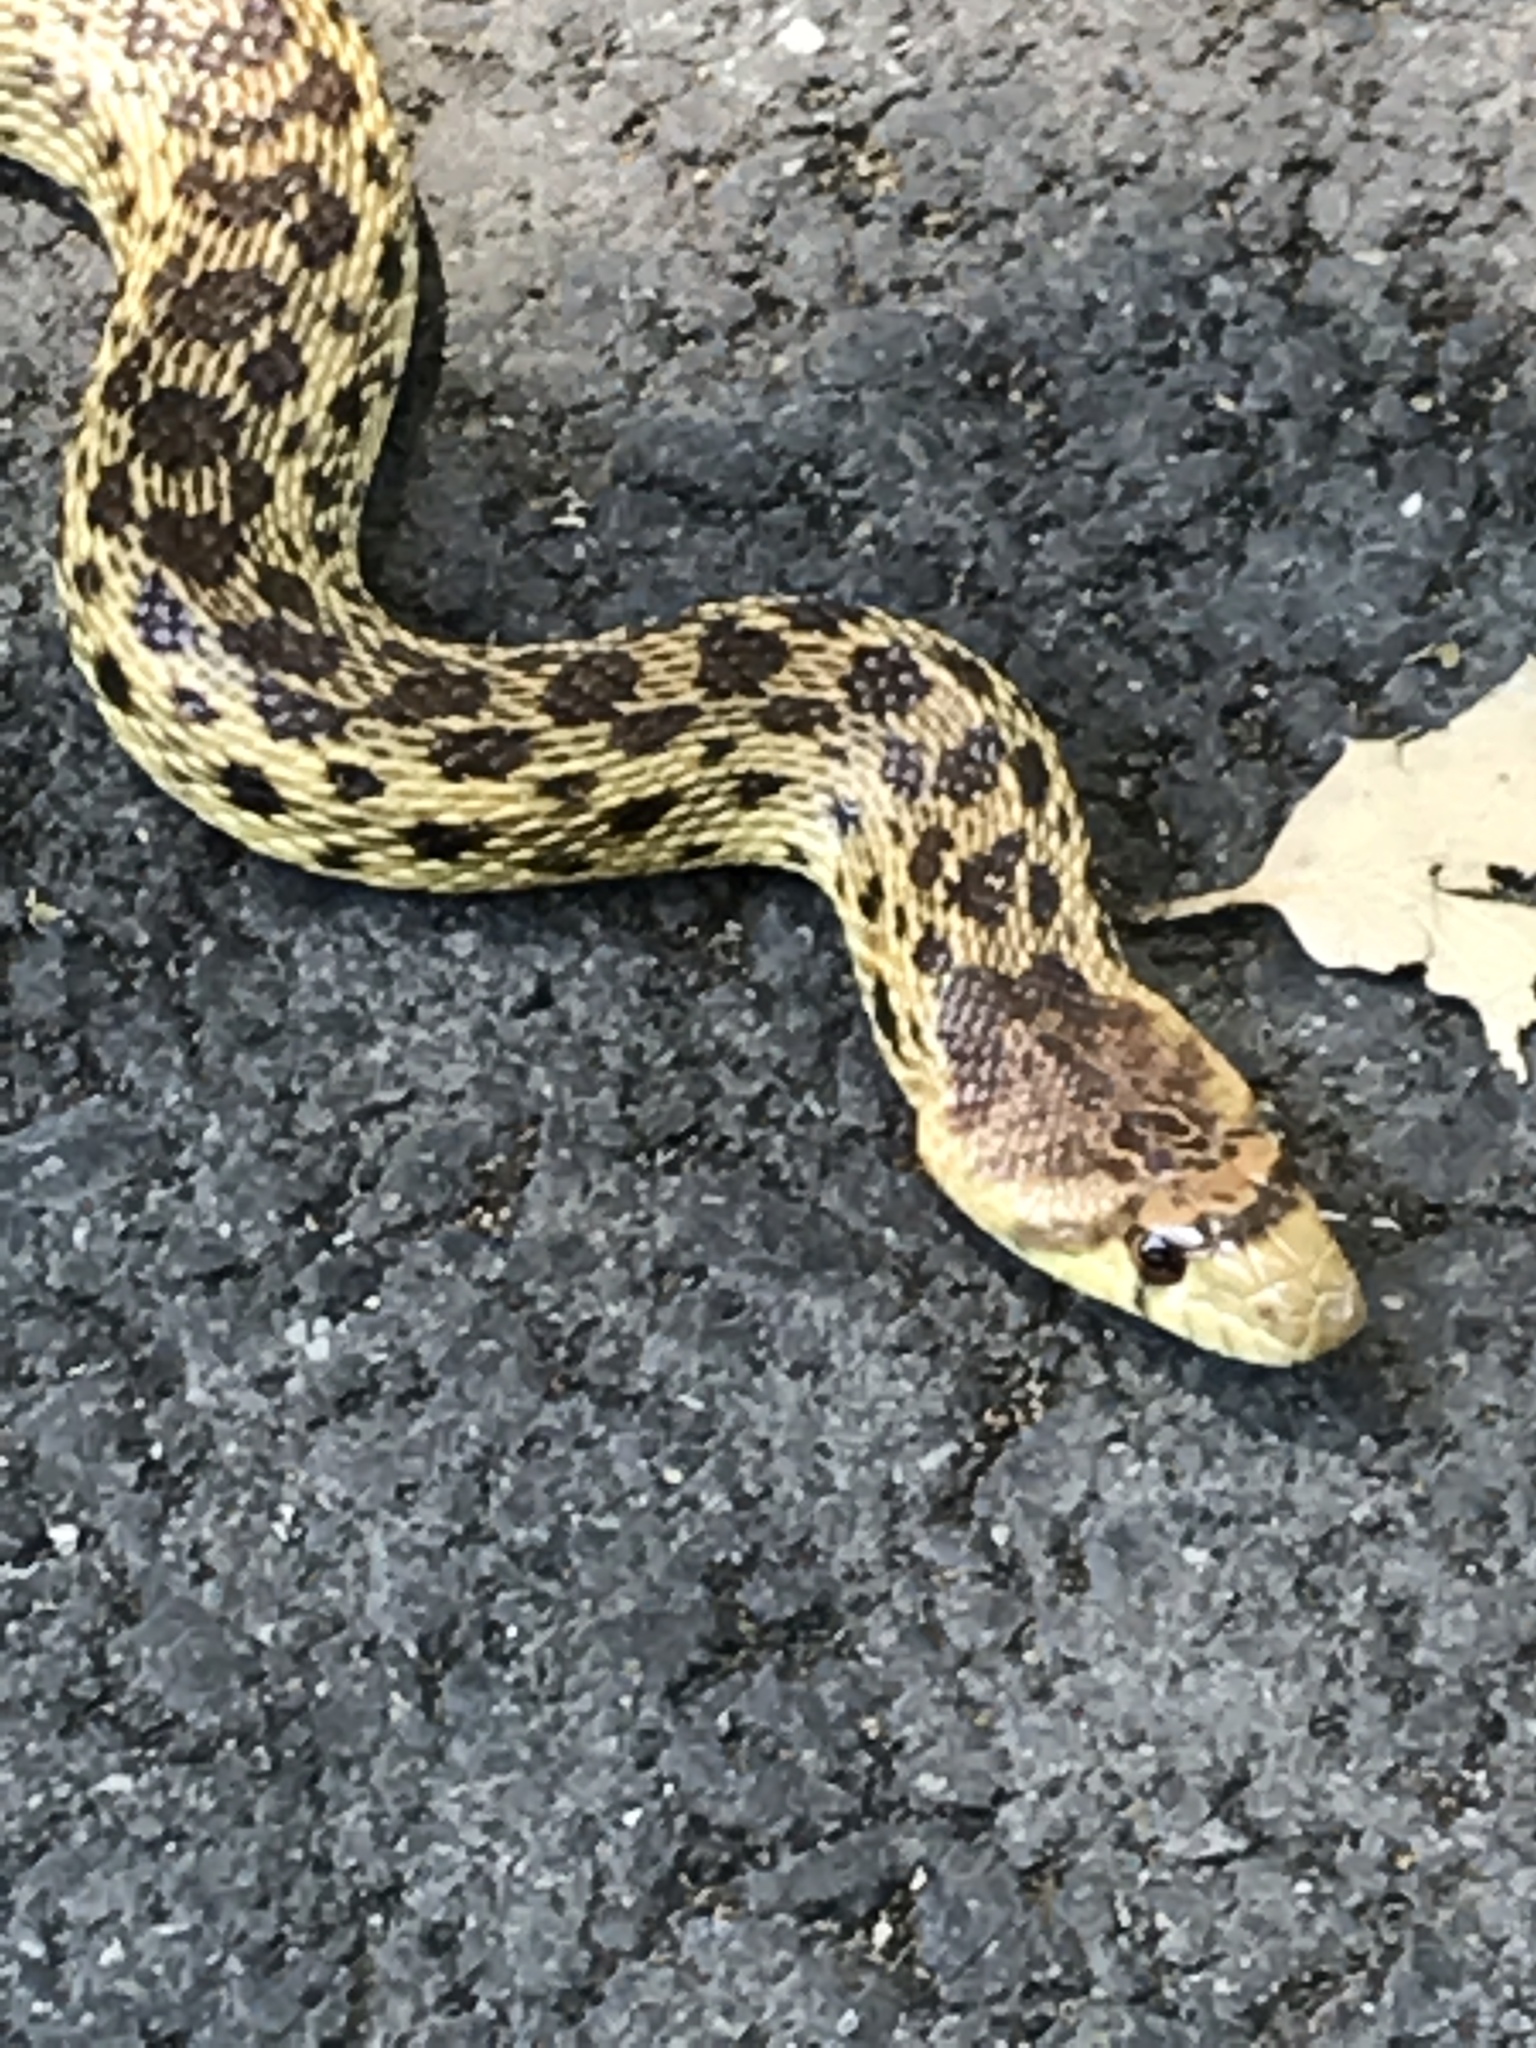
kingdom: Animalia
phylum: Chordata
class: Squamata
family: Colubridae
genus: Pituophis
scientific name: Pituophis catenifer
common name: Gopher snake
